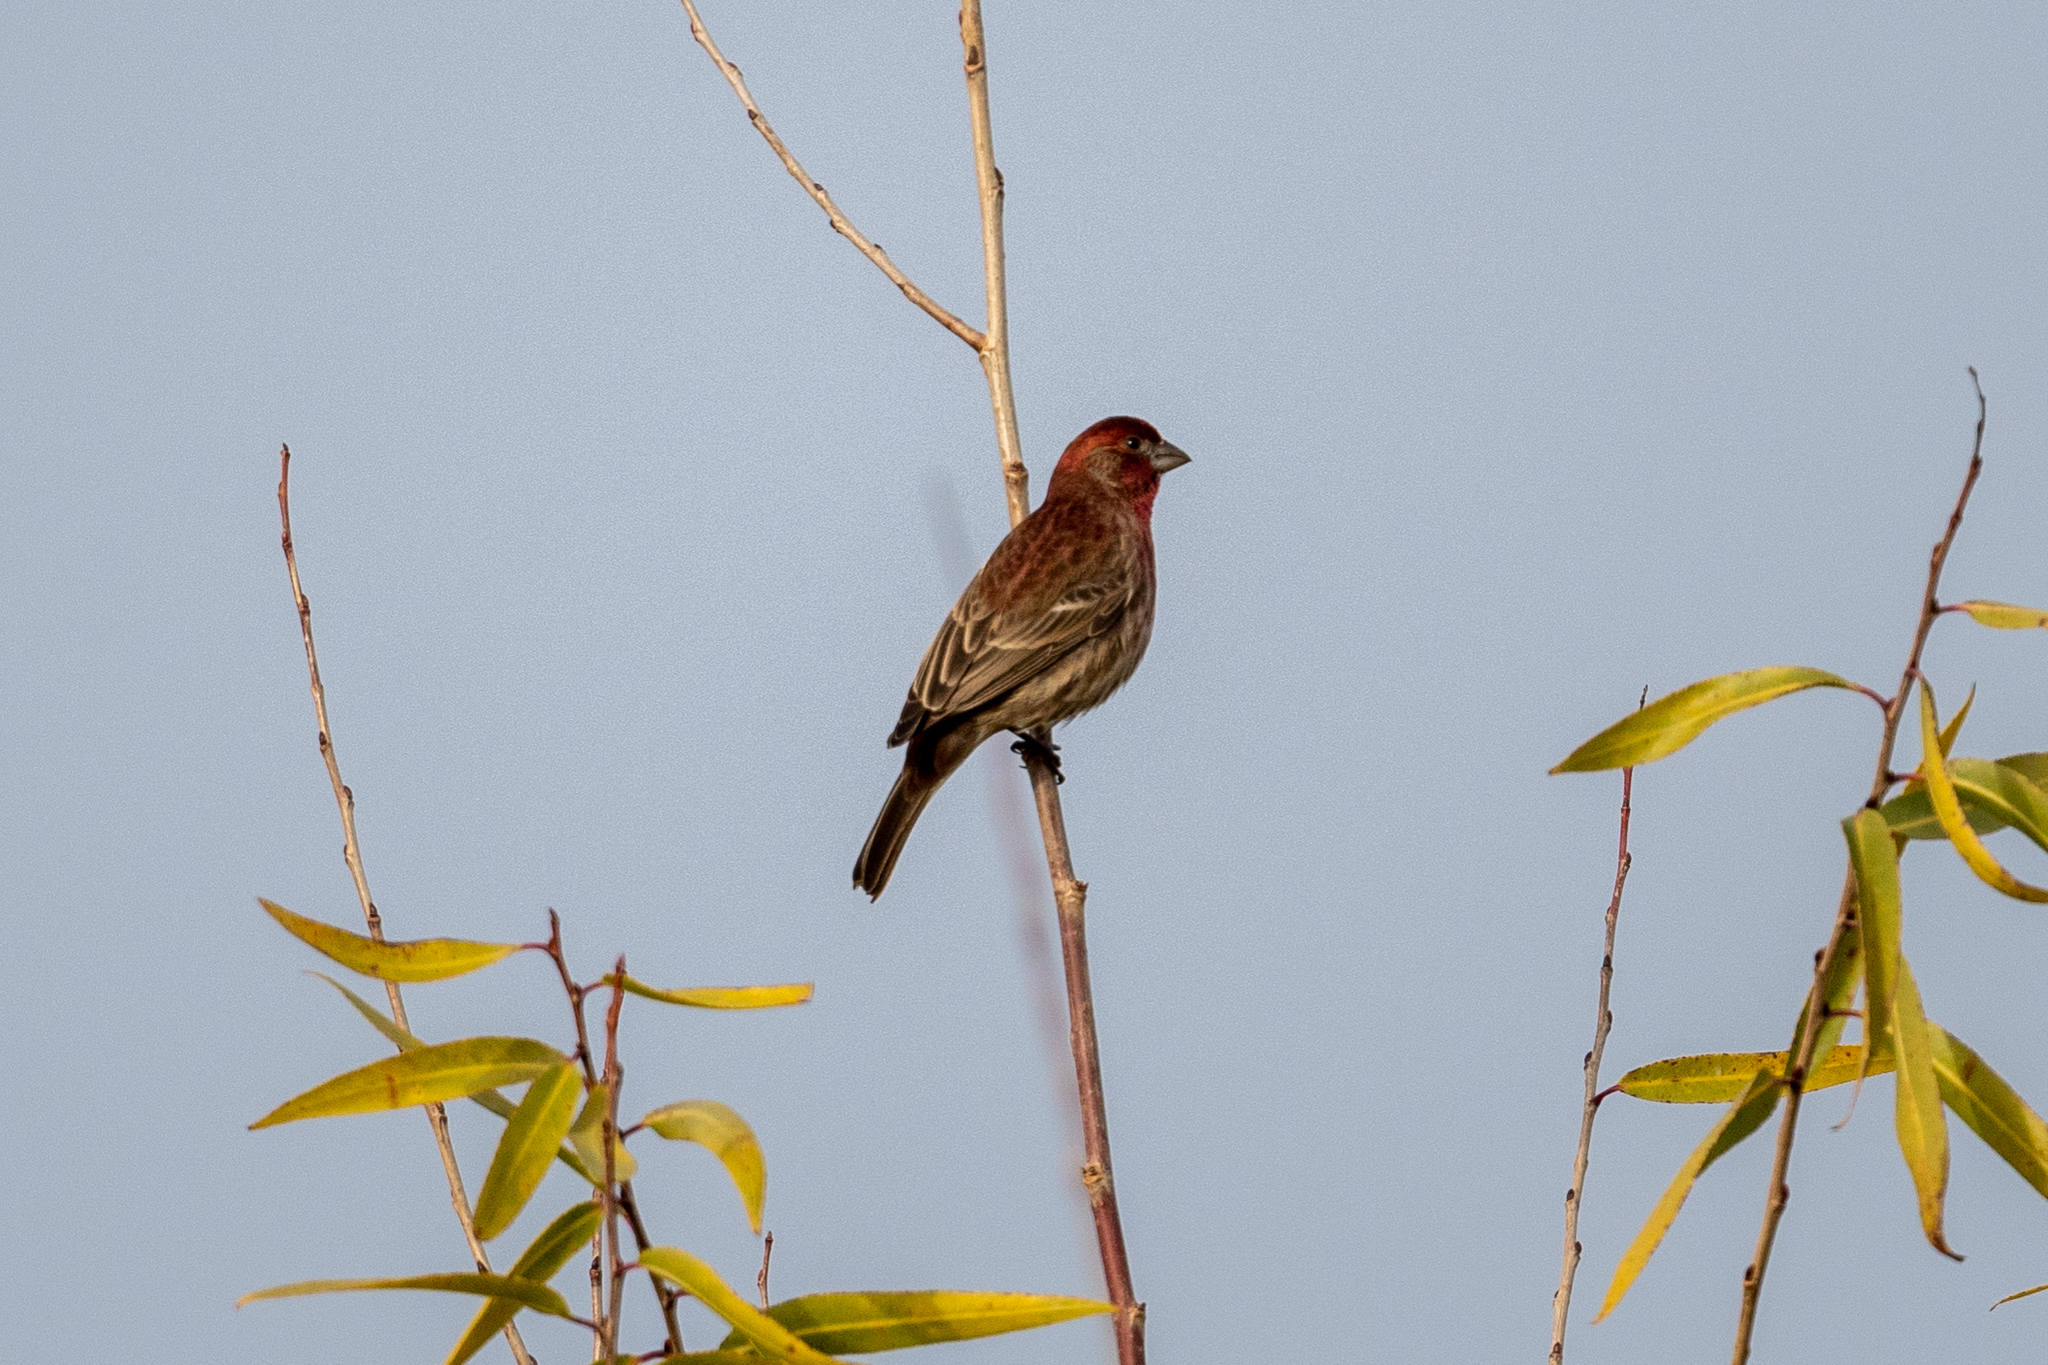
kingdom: Animalia
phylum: Chordata
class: Aves
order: Passeriformes
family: Fringillidae
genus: Haemorhous
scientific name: Haemorhous mexicanus
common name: House finch
